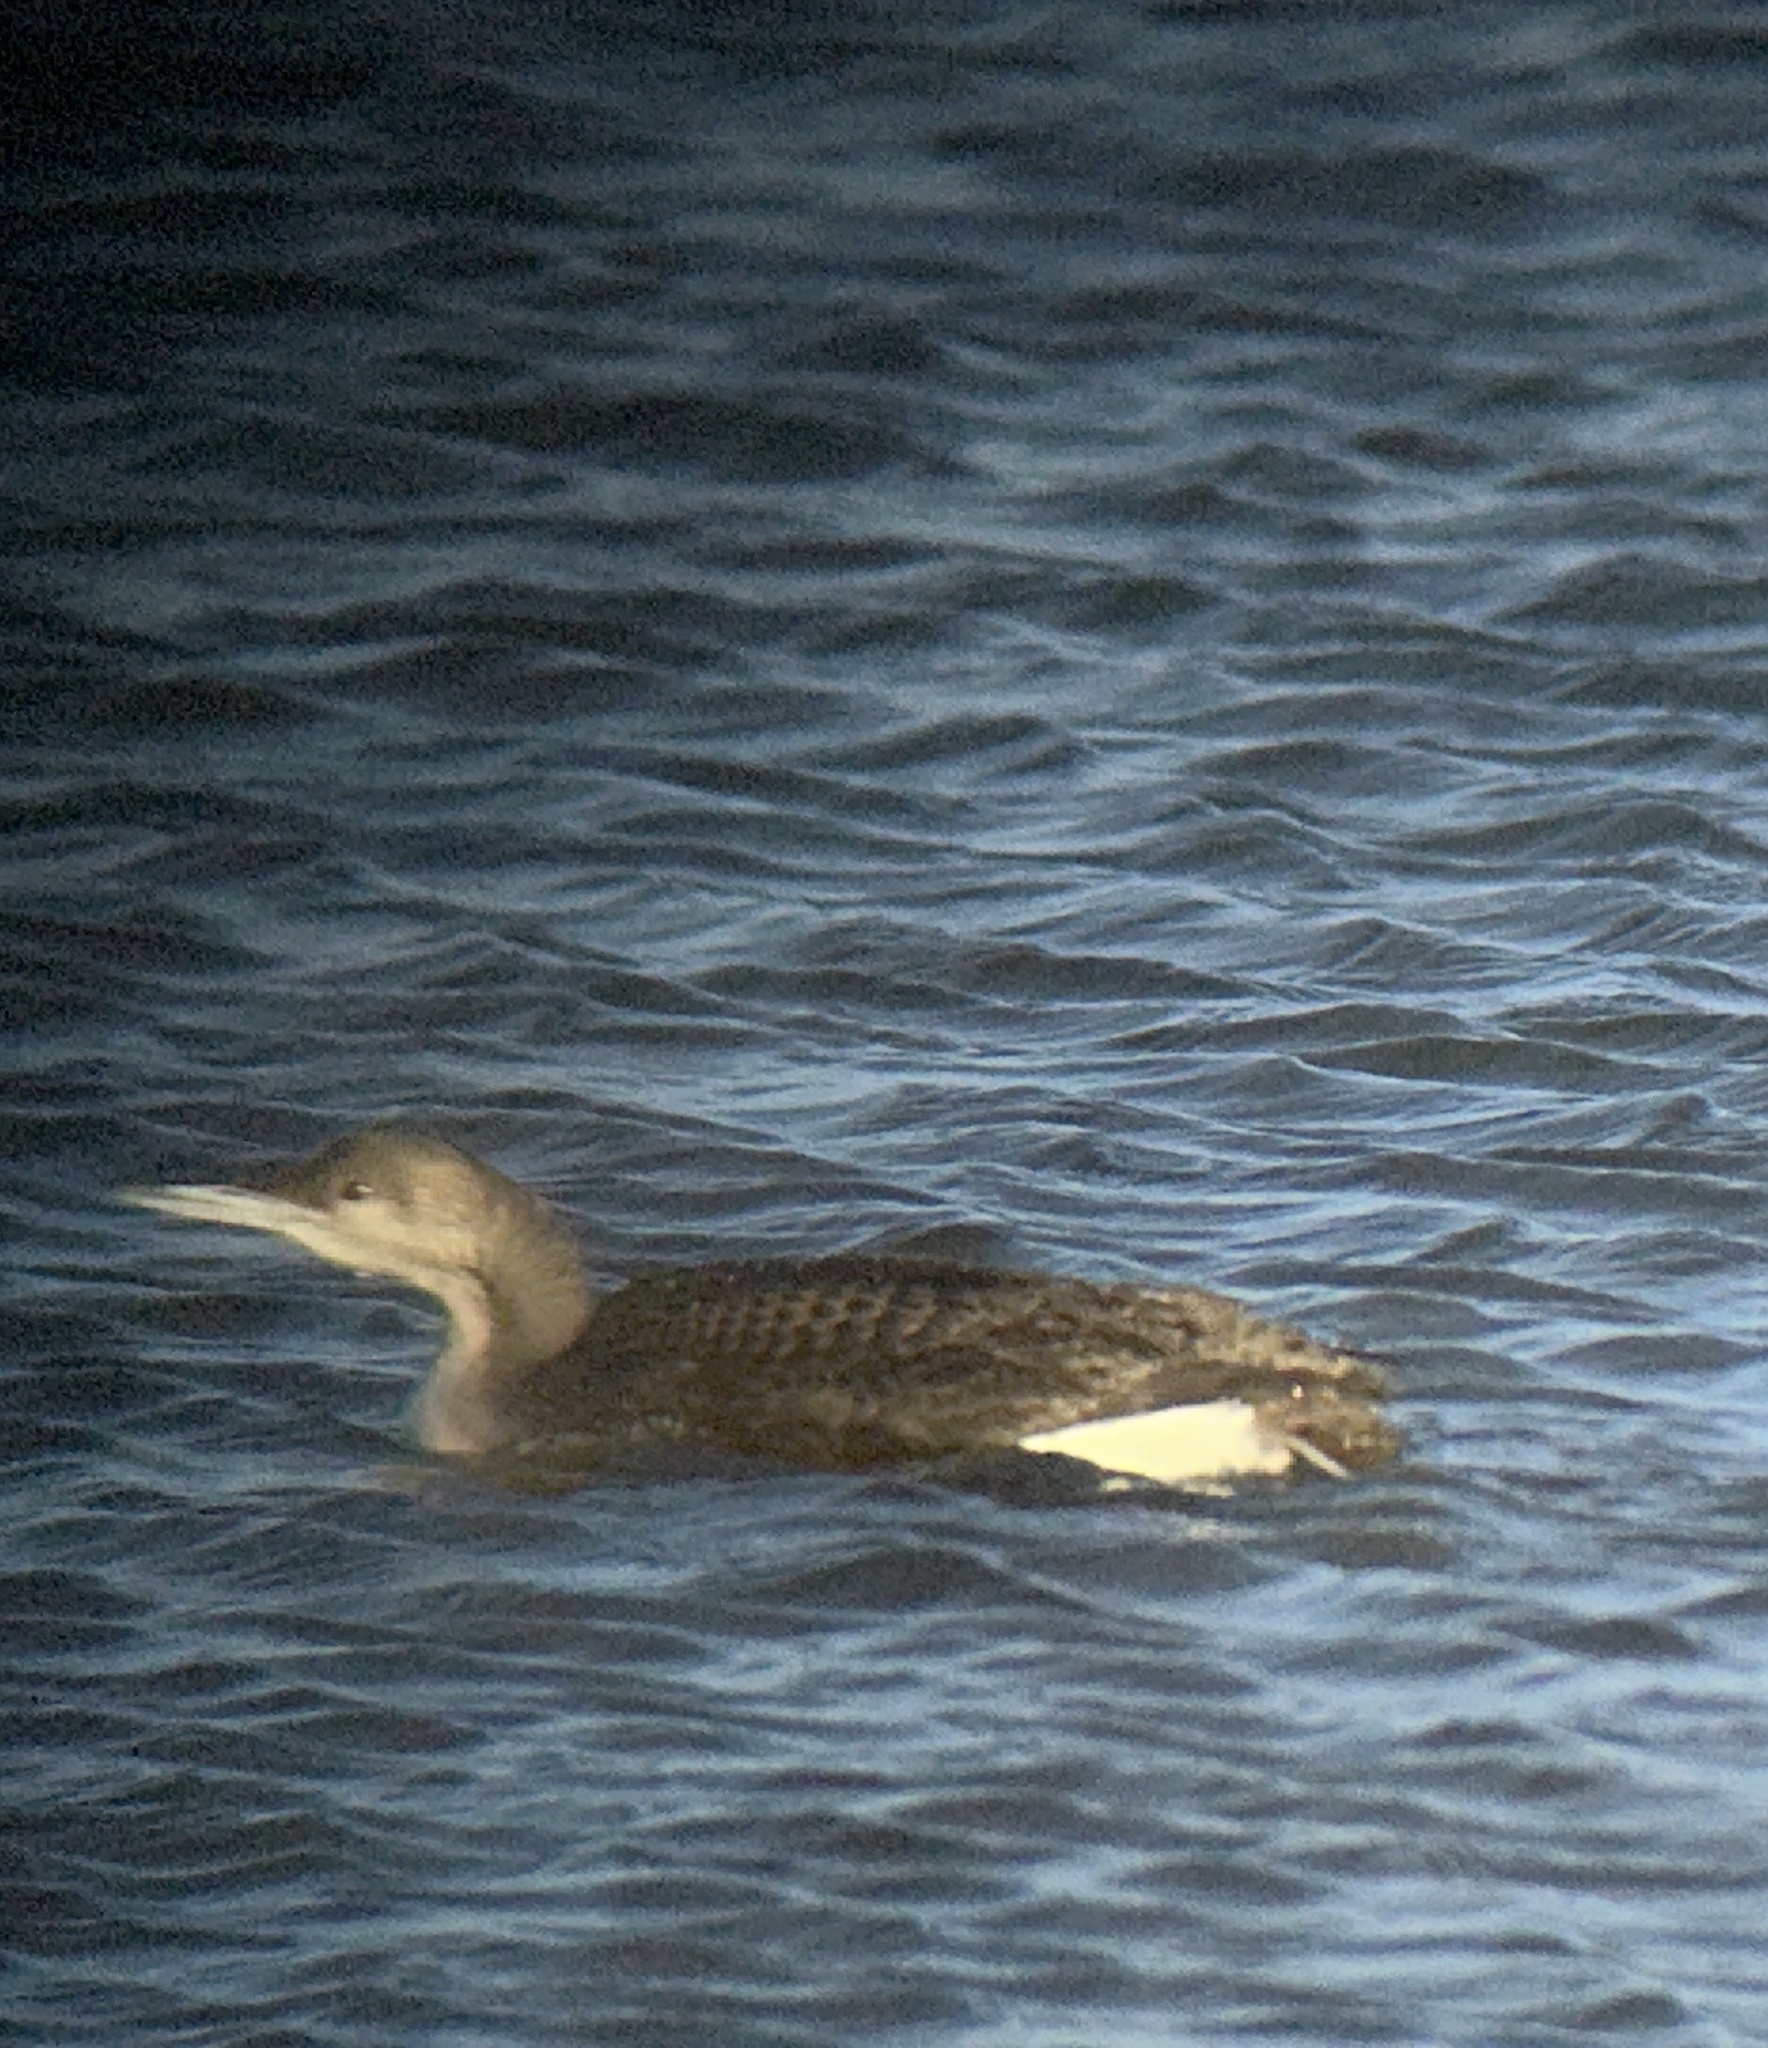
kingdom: Animalia
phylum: Chordata
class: Aves
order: Gaviiformes
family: Gaviidae
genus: Gavia
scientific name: Gavia arctica
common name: Black-throated loon
